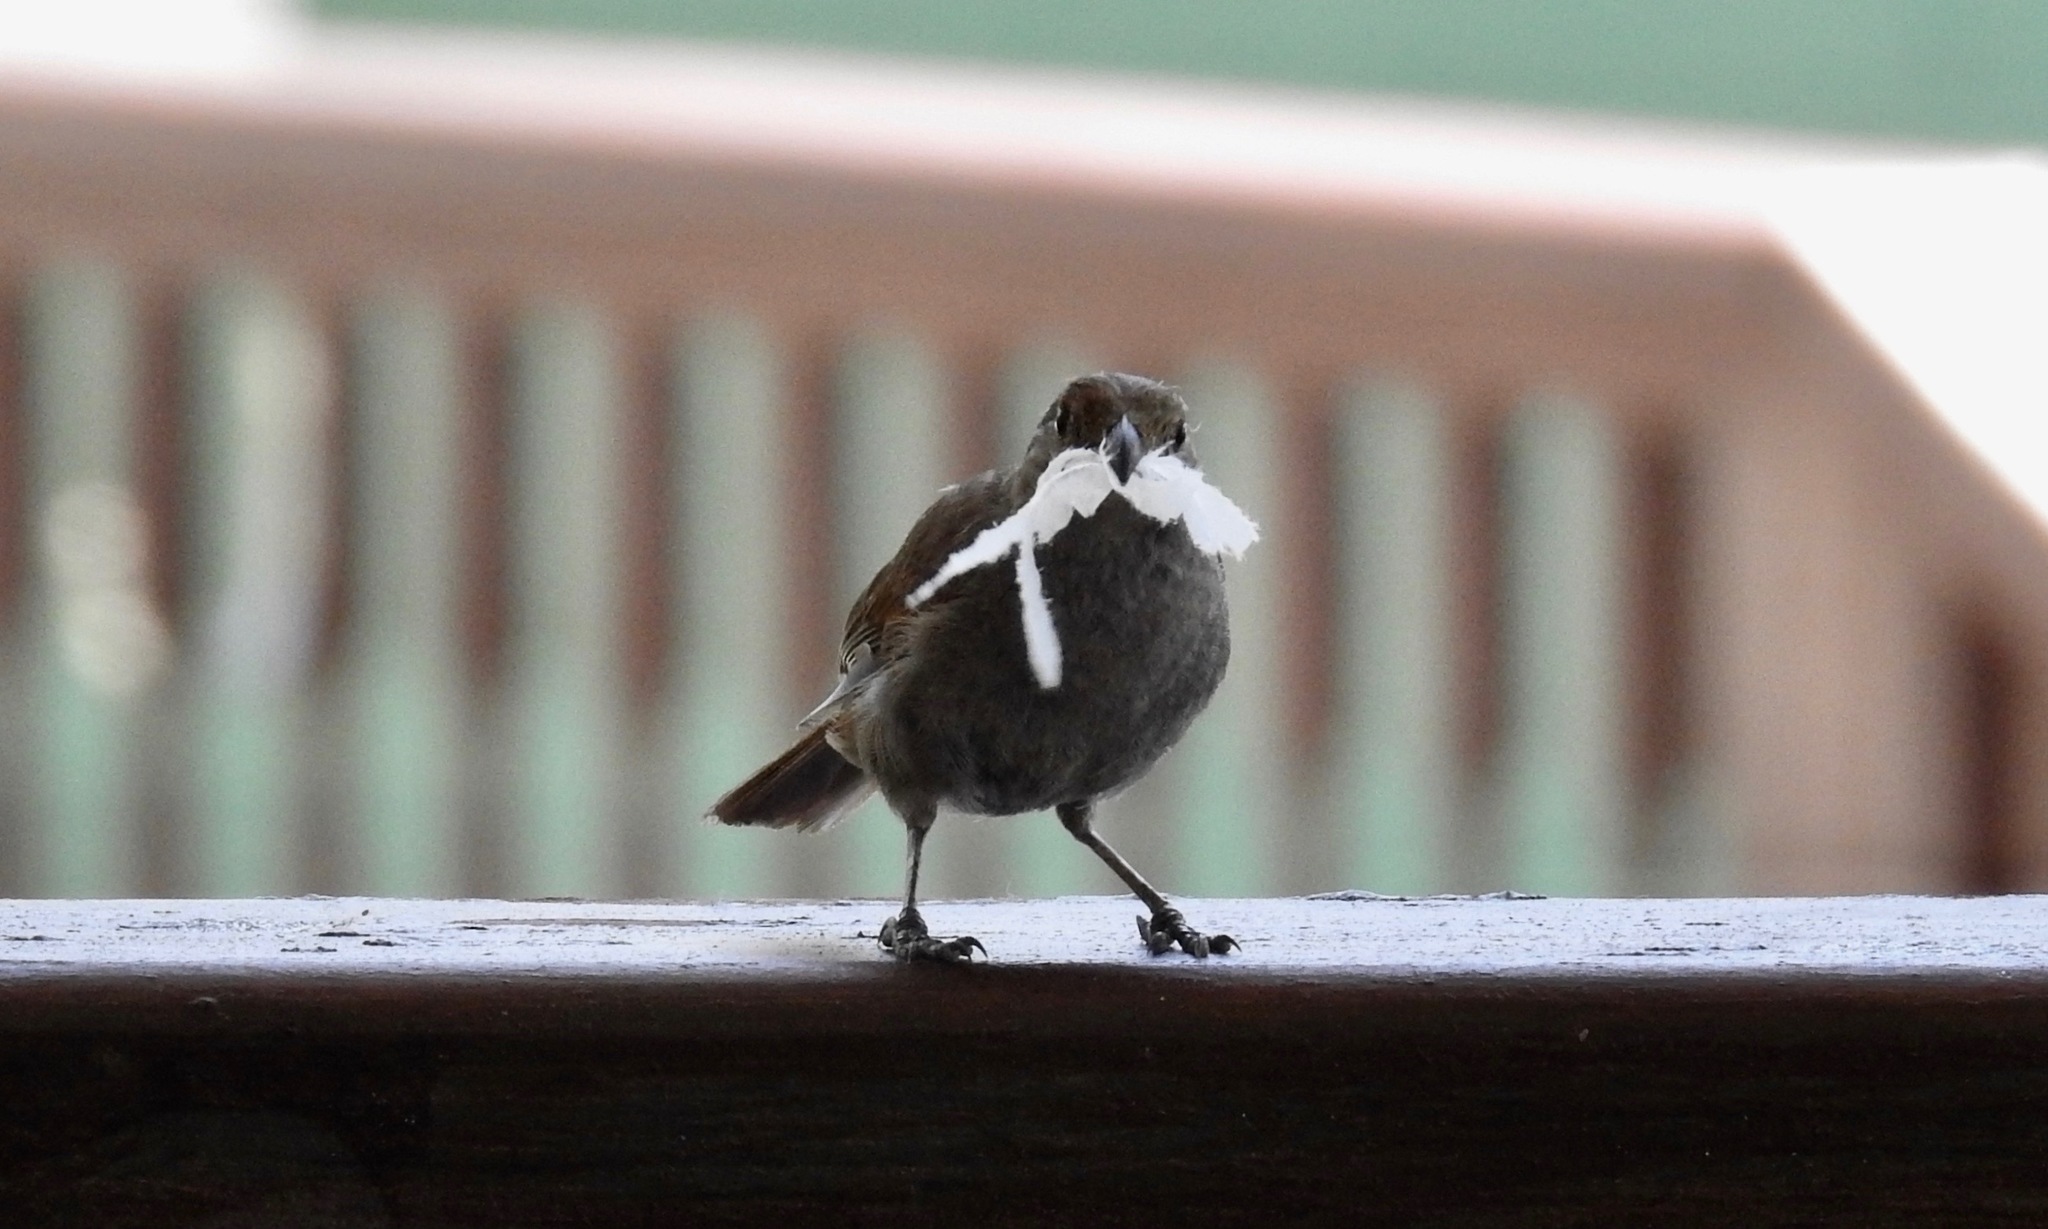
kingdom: Animalia
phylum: Chordata
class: Aves
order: Passeriformes
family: Thraupidae
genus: Loxigilla
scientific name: Loxigilla barbadensis
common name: Barbados bullfinch
